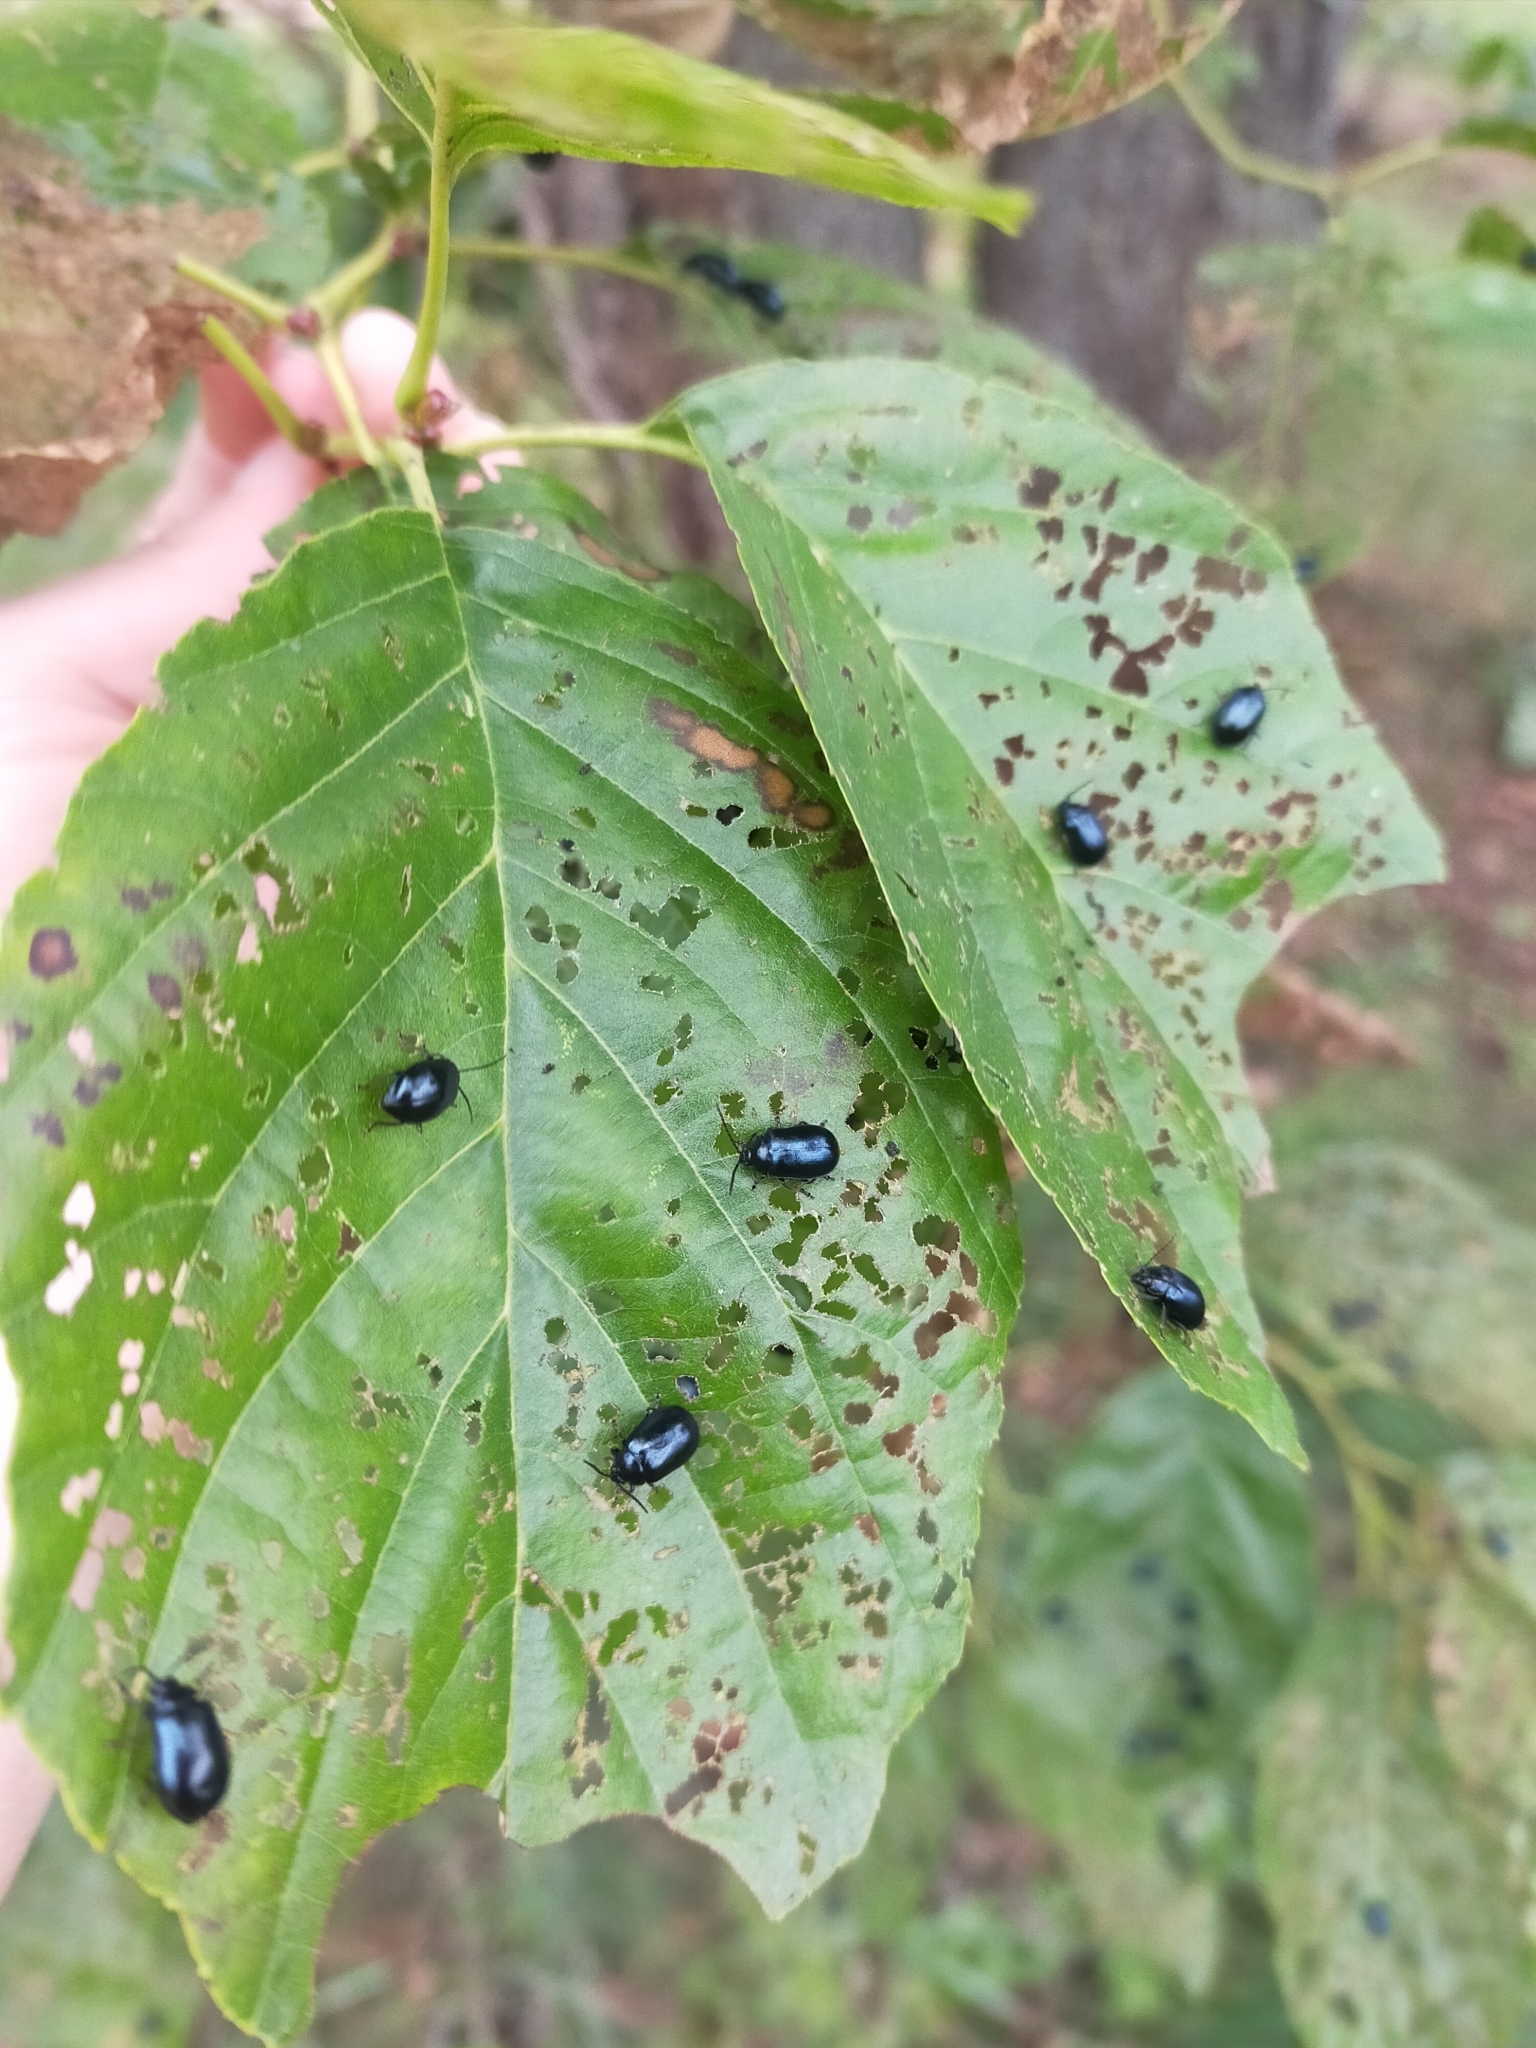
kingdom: Animalia
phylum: Arthropoda
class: Insecta
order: Coleoptera
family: Chrysomelidae
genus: Agelastica
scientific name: Agelastica coerulea
